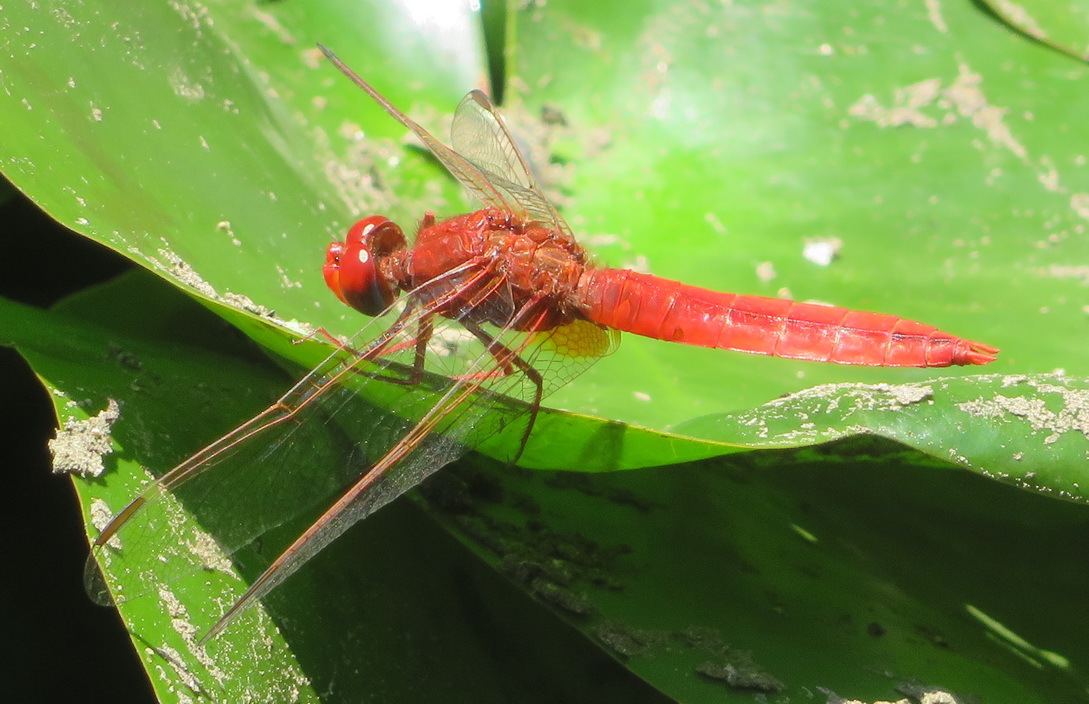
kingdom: Animalia
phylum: Arthropoda
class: Insecta
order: Odonata
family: Libellulidae
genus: Crocothemis
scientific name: Crocothemis erythraea
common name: Scarlet dragonfly
